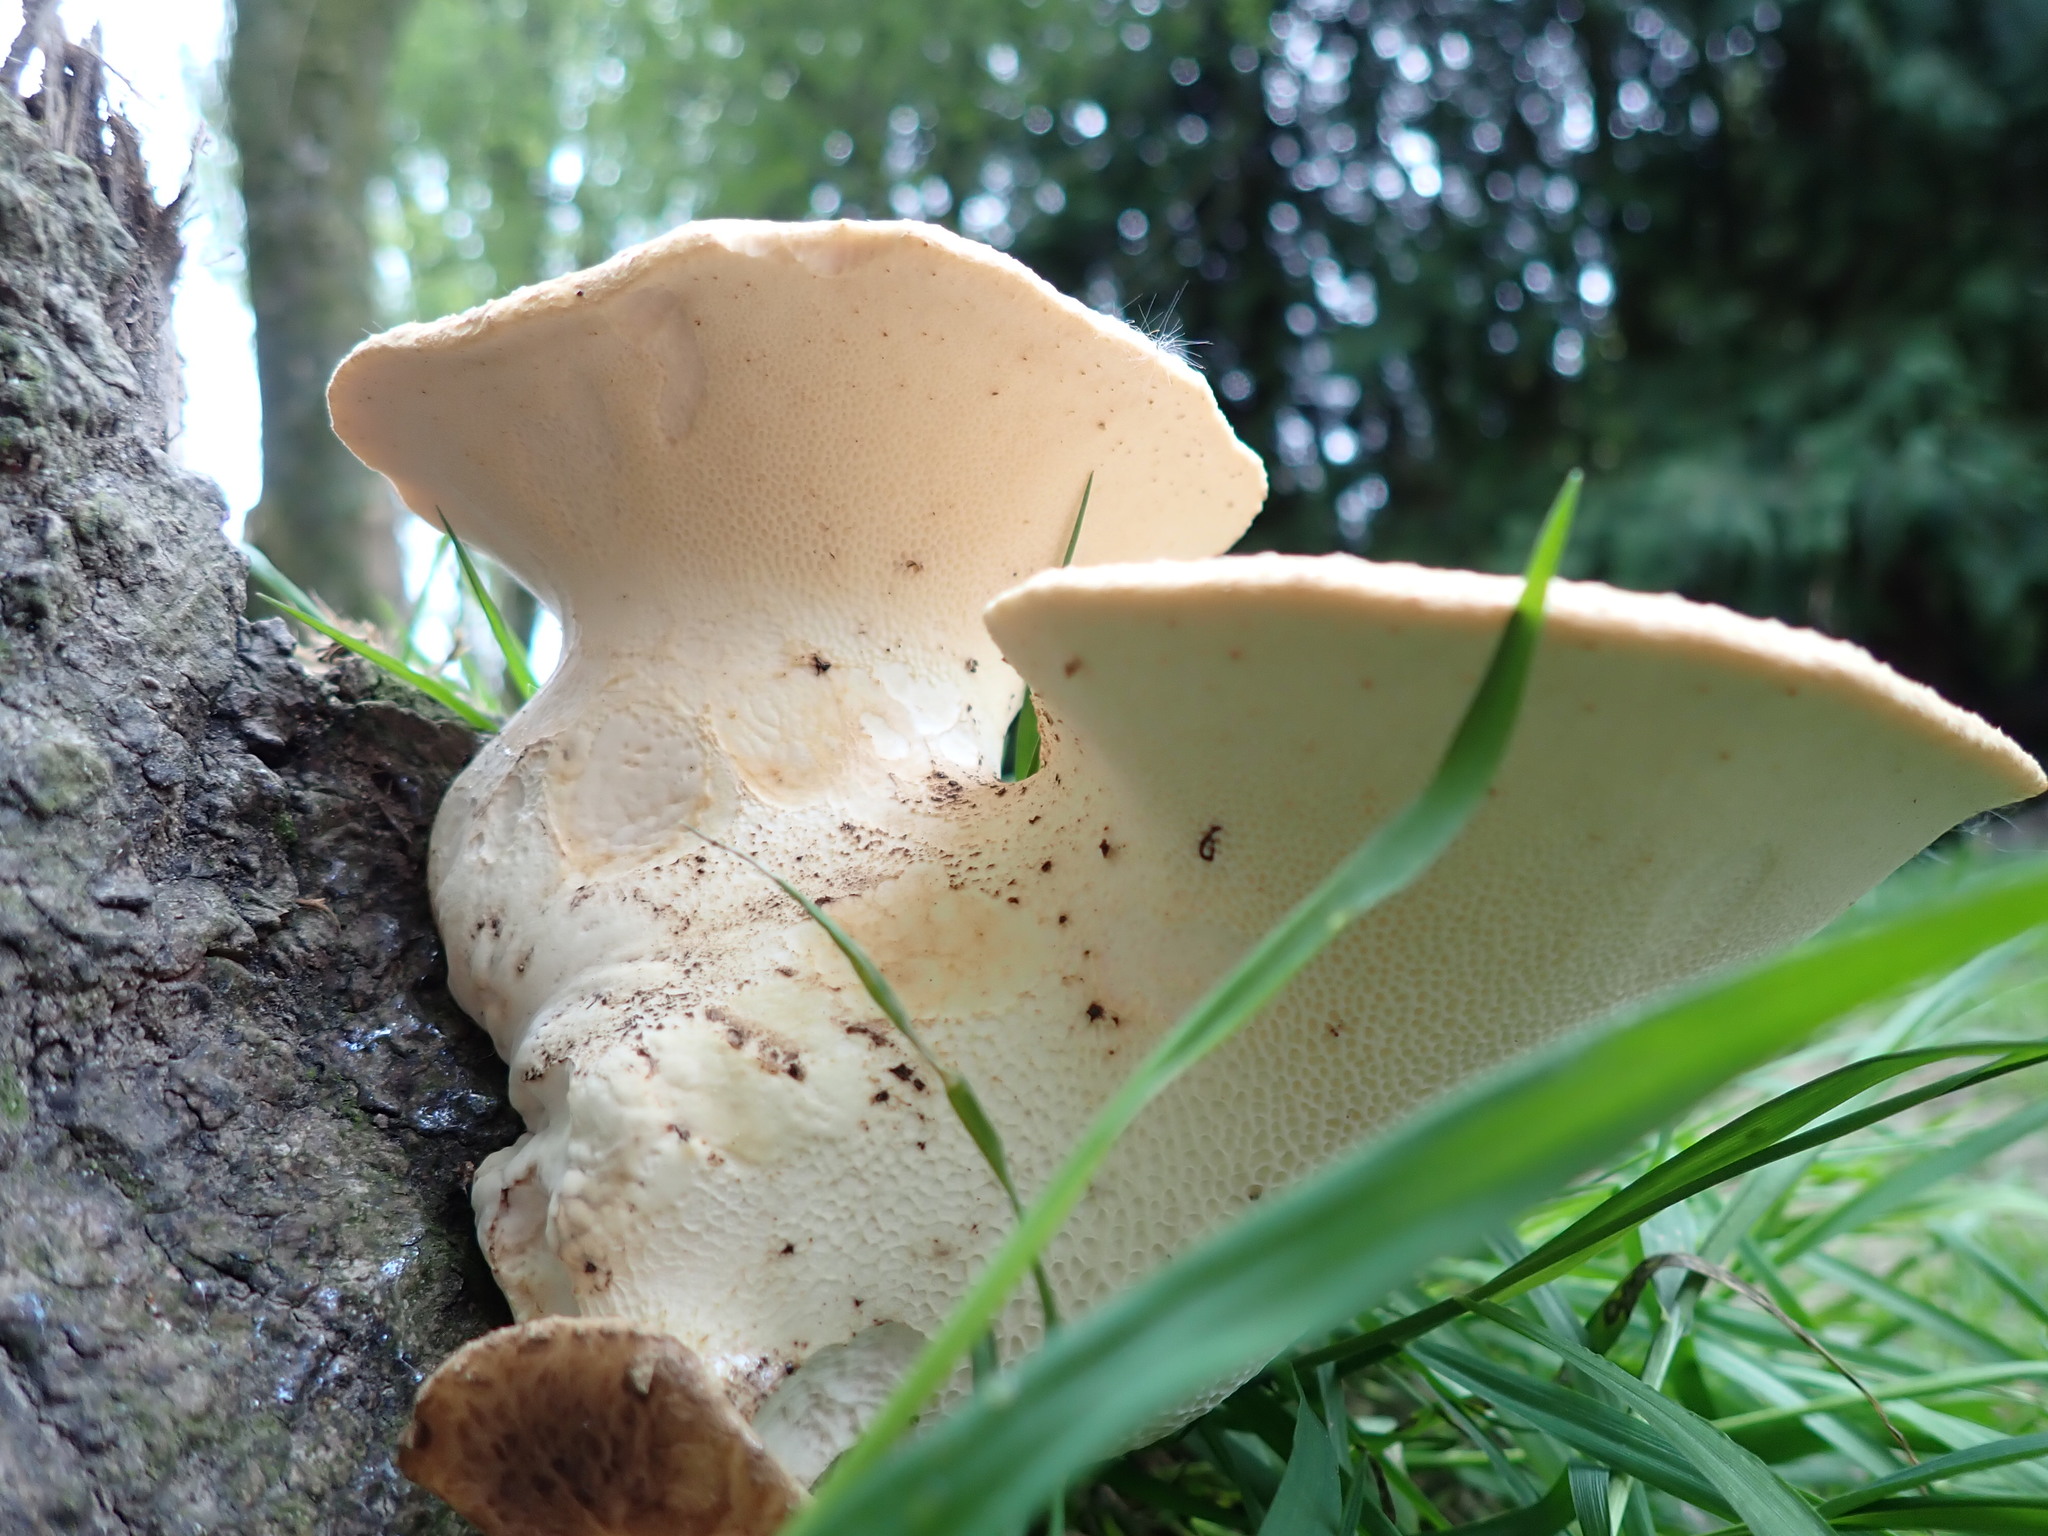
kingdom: Fungi
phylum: Basidiomycota
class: Agaricomycetes
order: Polyporales
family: Polyporaceae
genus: Cerioporus
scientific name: Cerioporus squamosus
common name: Dryad's saddle
